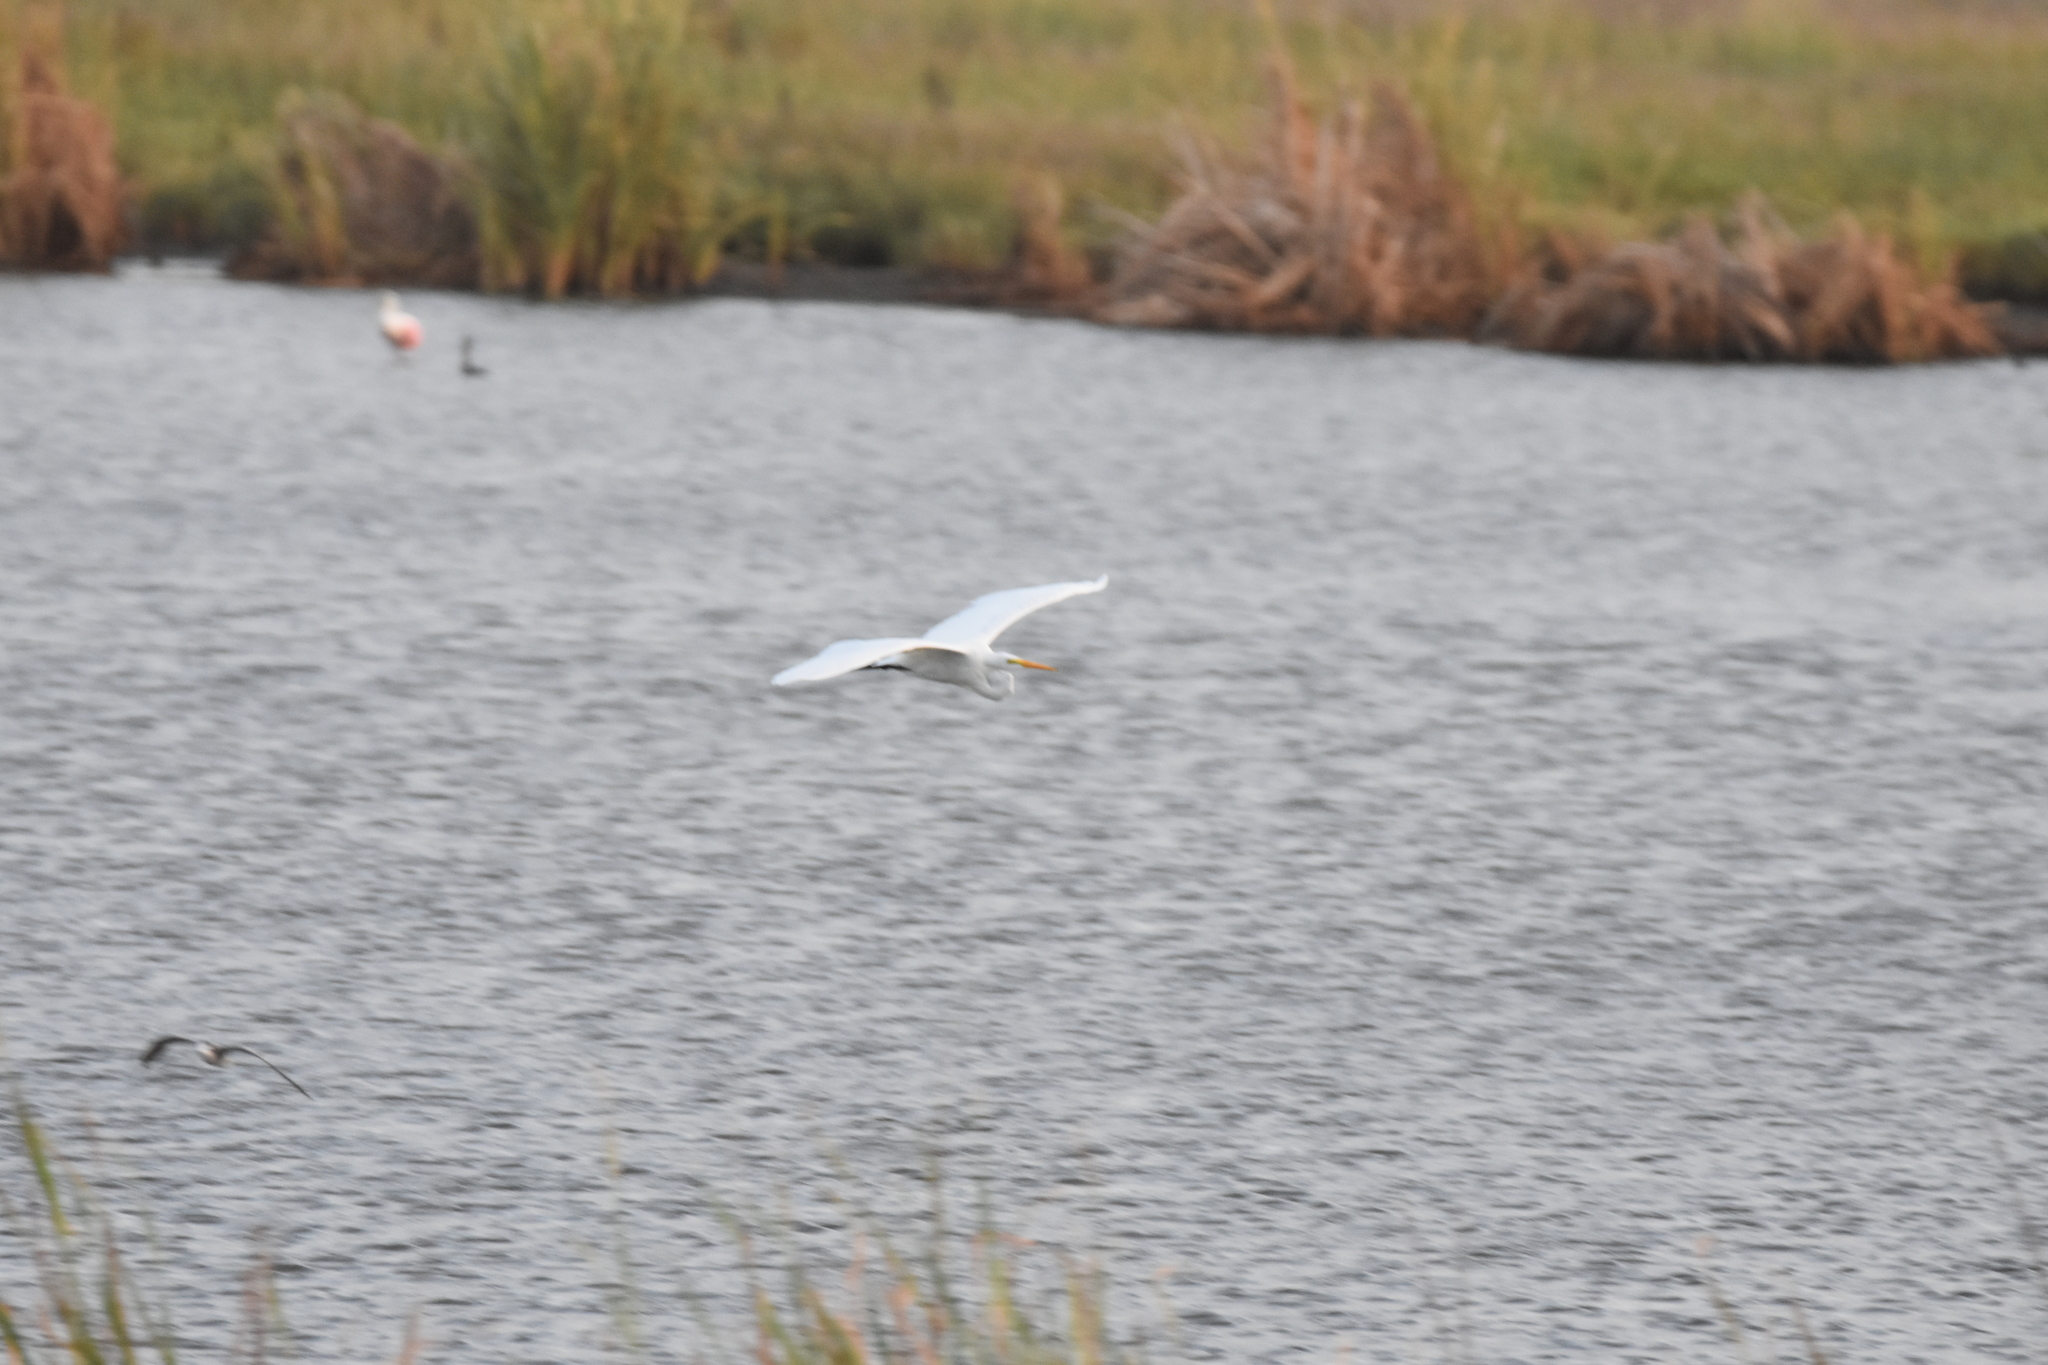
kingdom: Animalia
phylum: Chordata
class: Aves
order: Pelecaniformes
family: Ardeidae
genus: Ardea
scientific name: Ardea alba
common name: Great egret
